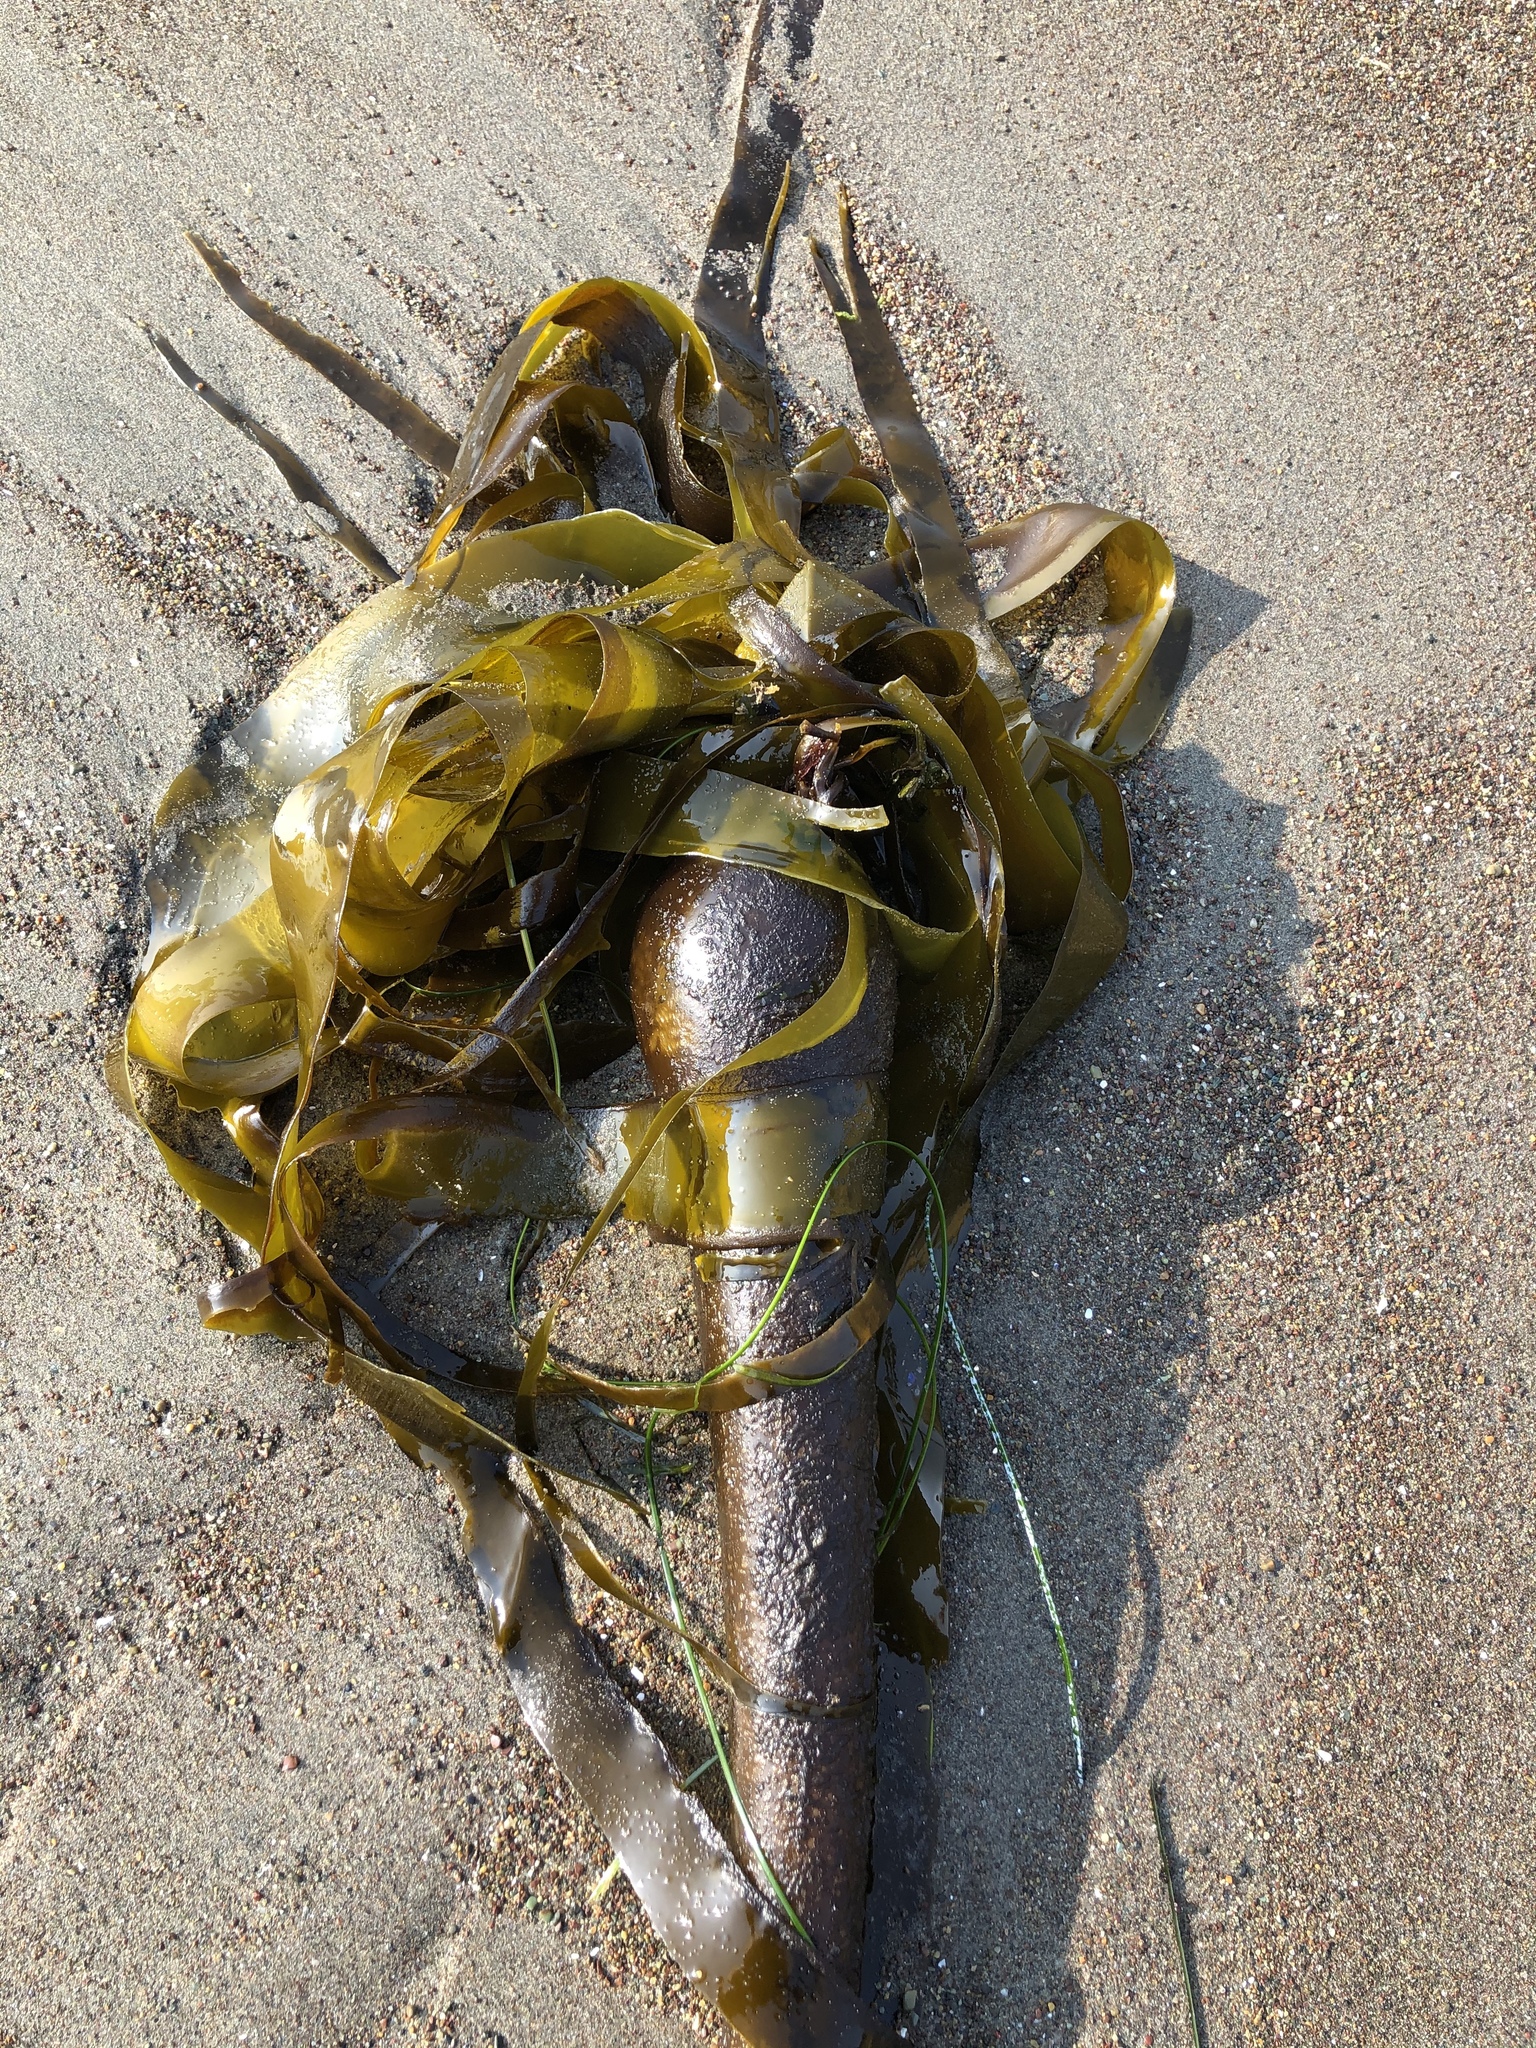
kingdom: Chromista
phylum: Ochrophyta
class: Phaeophyceae
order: Laminariales
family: Laminariaceae
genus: Nereocystis
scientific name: Nereocystis luetkeana
